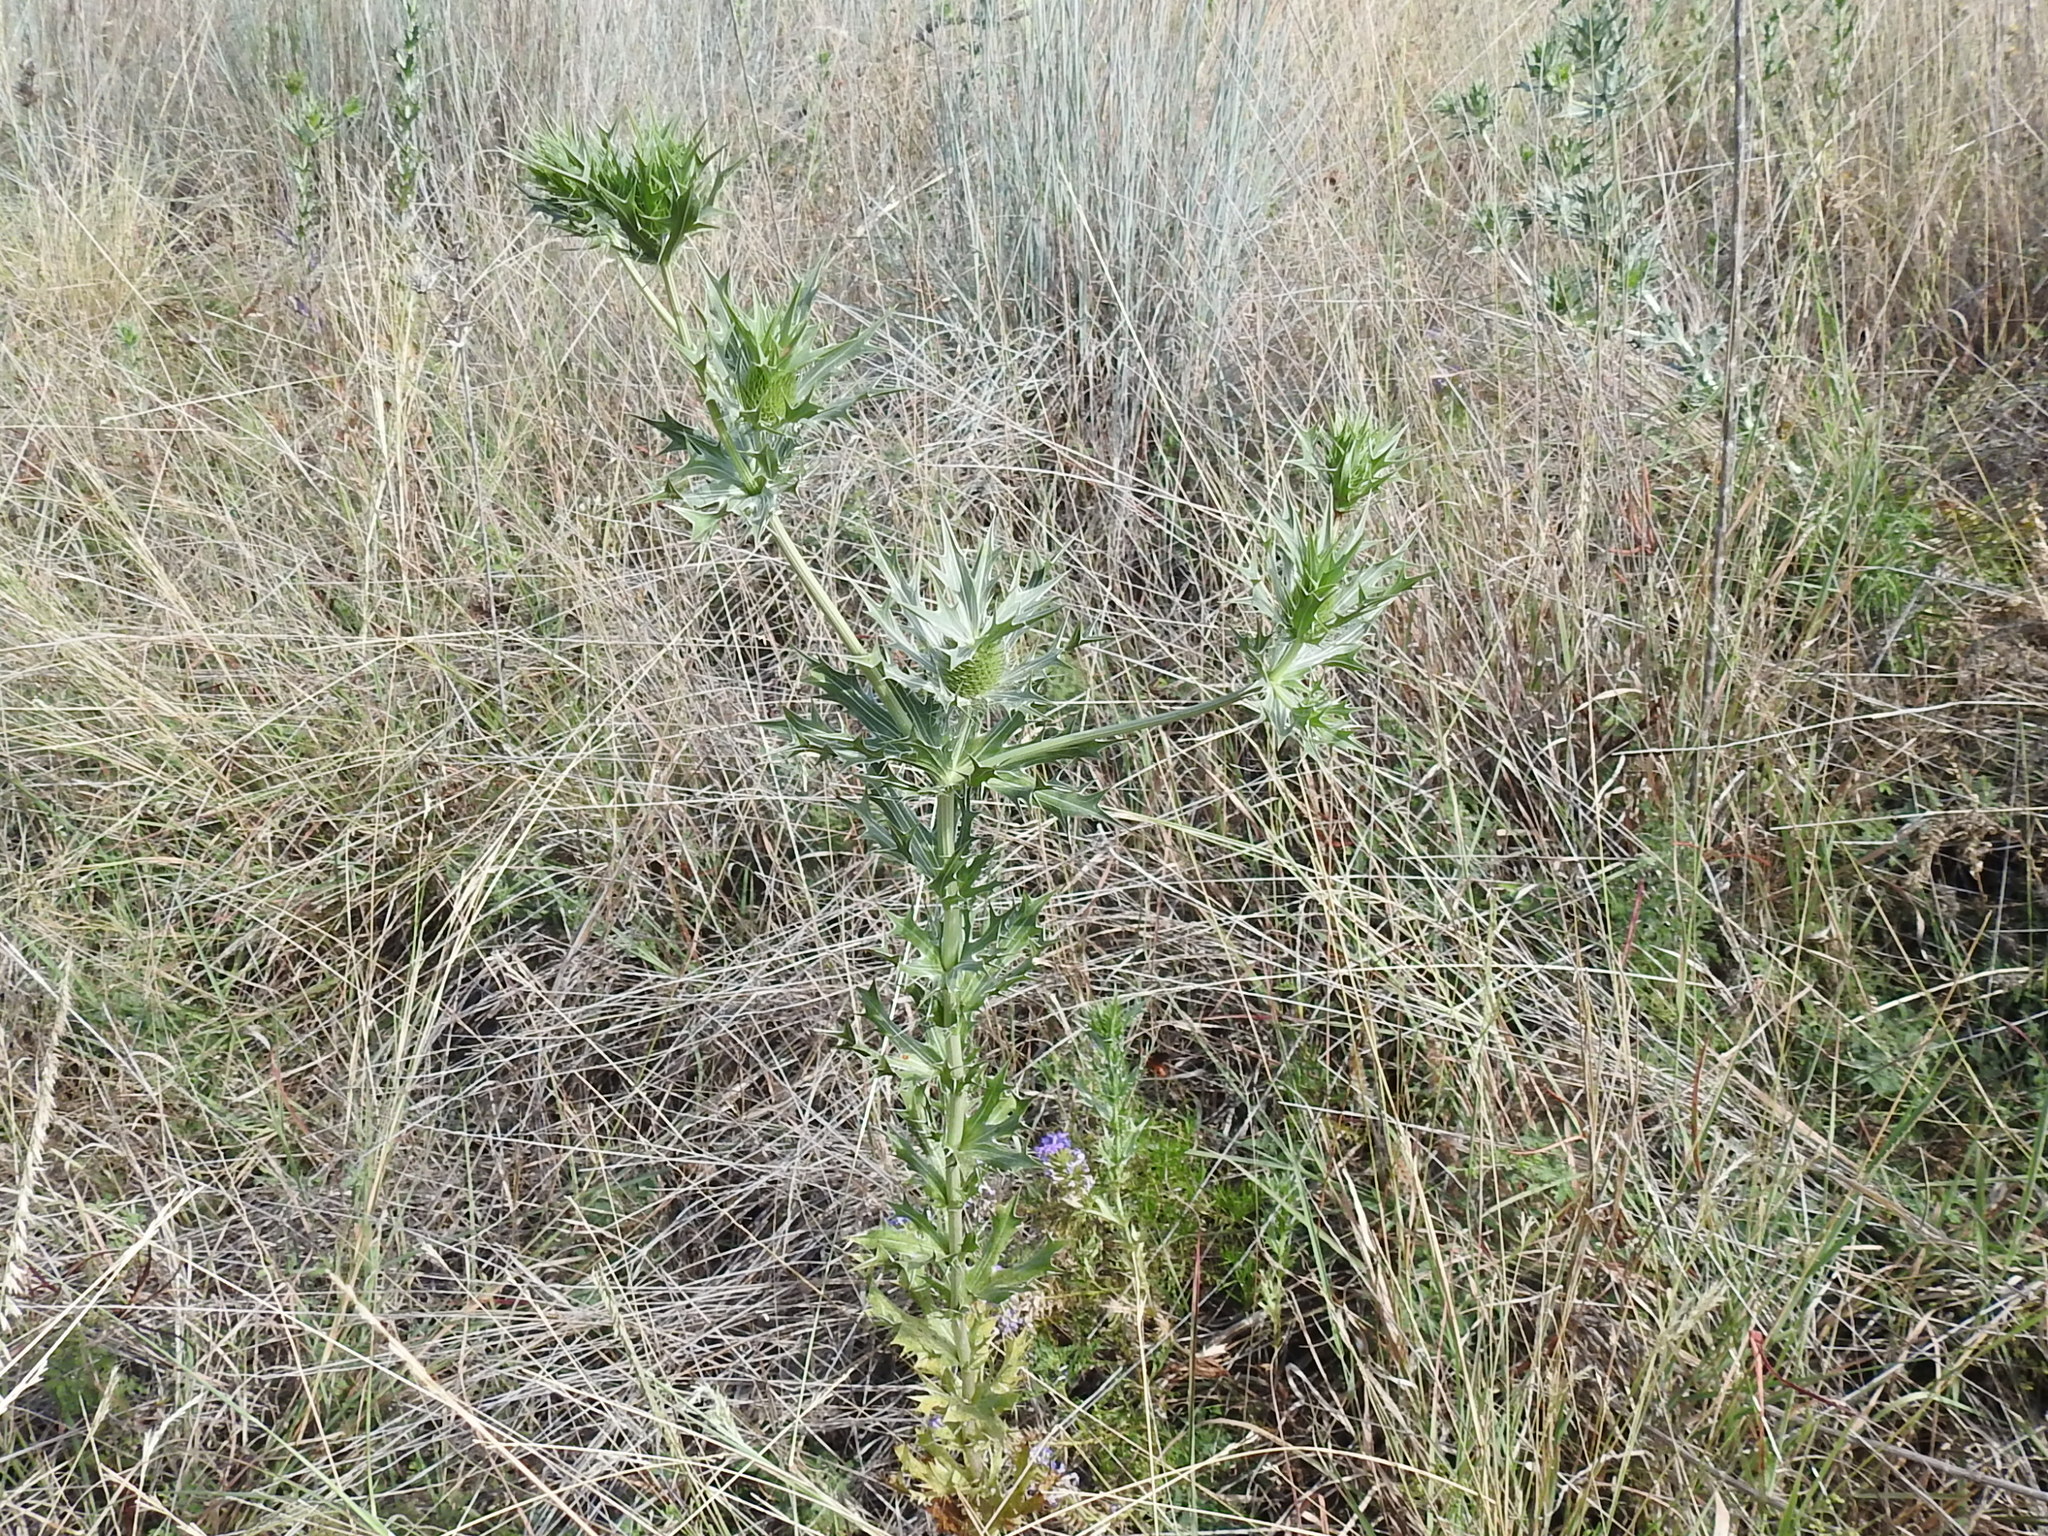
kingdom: Plantae
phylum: Tracheophyta
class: Magnoliopsida
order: Apiales
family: Apiaceae
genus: Eryngium
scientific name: Eryngium leavenworthii
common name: Leavenworth's eryngo
